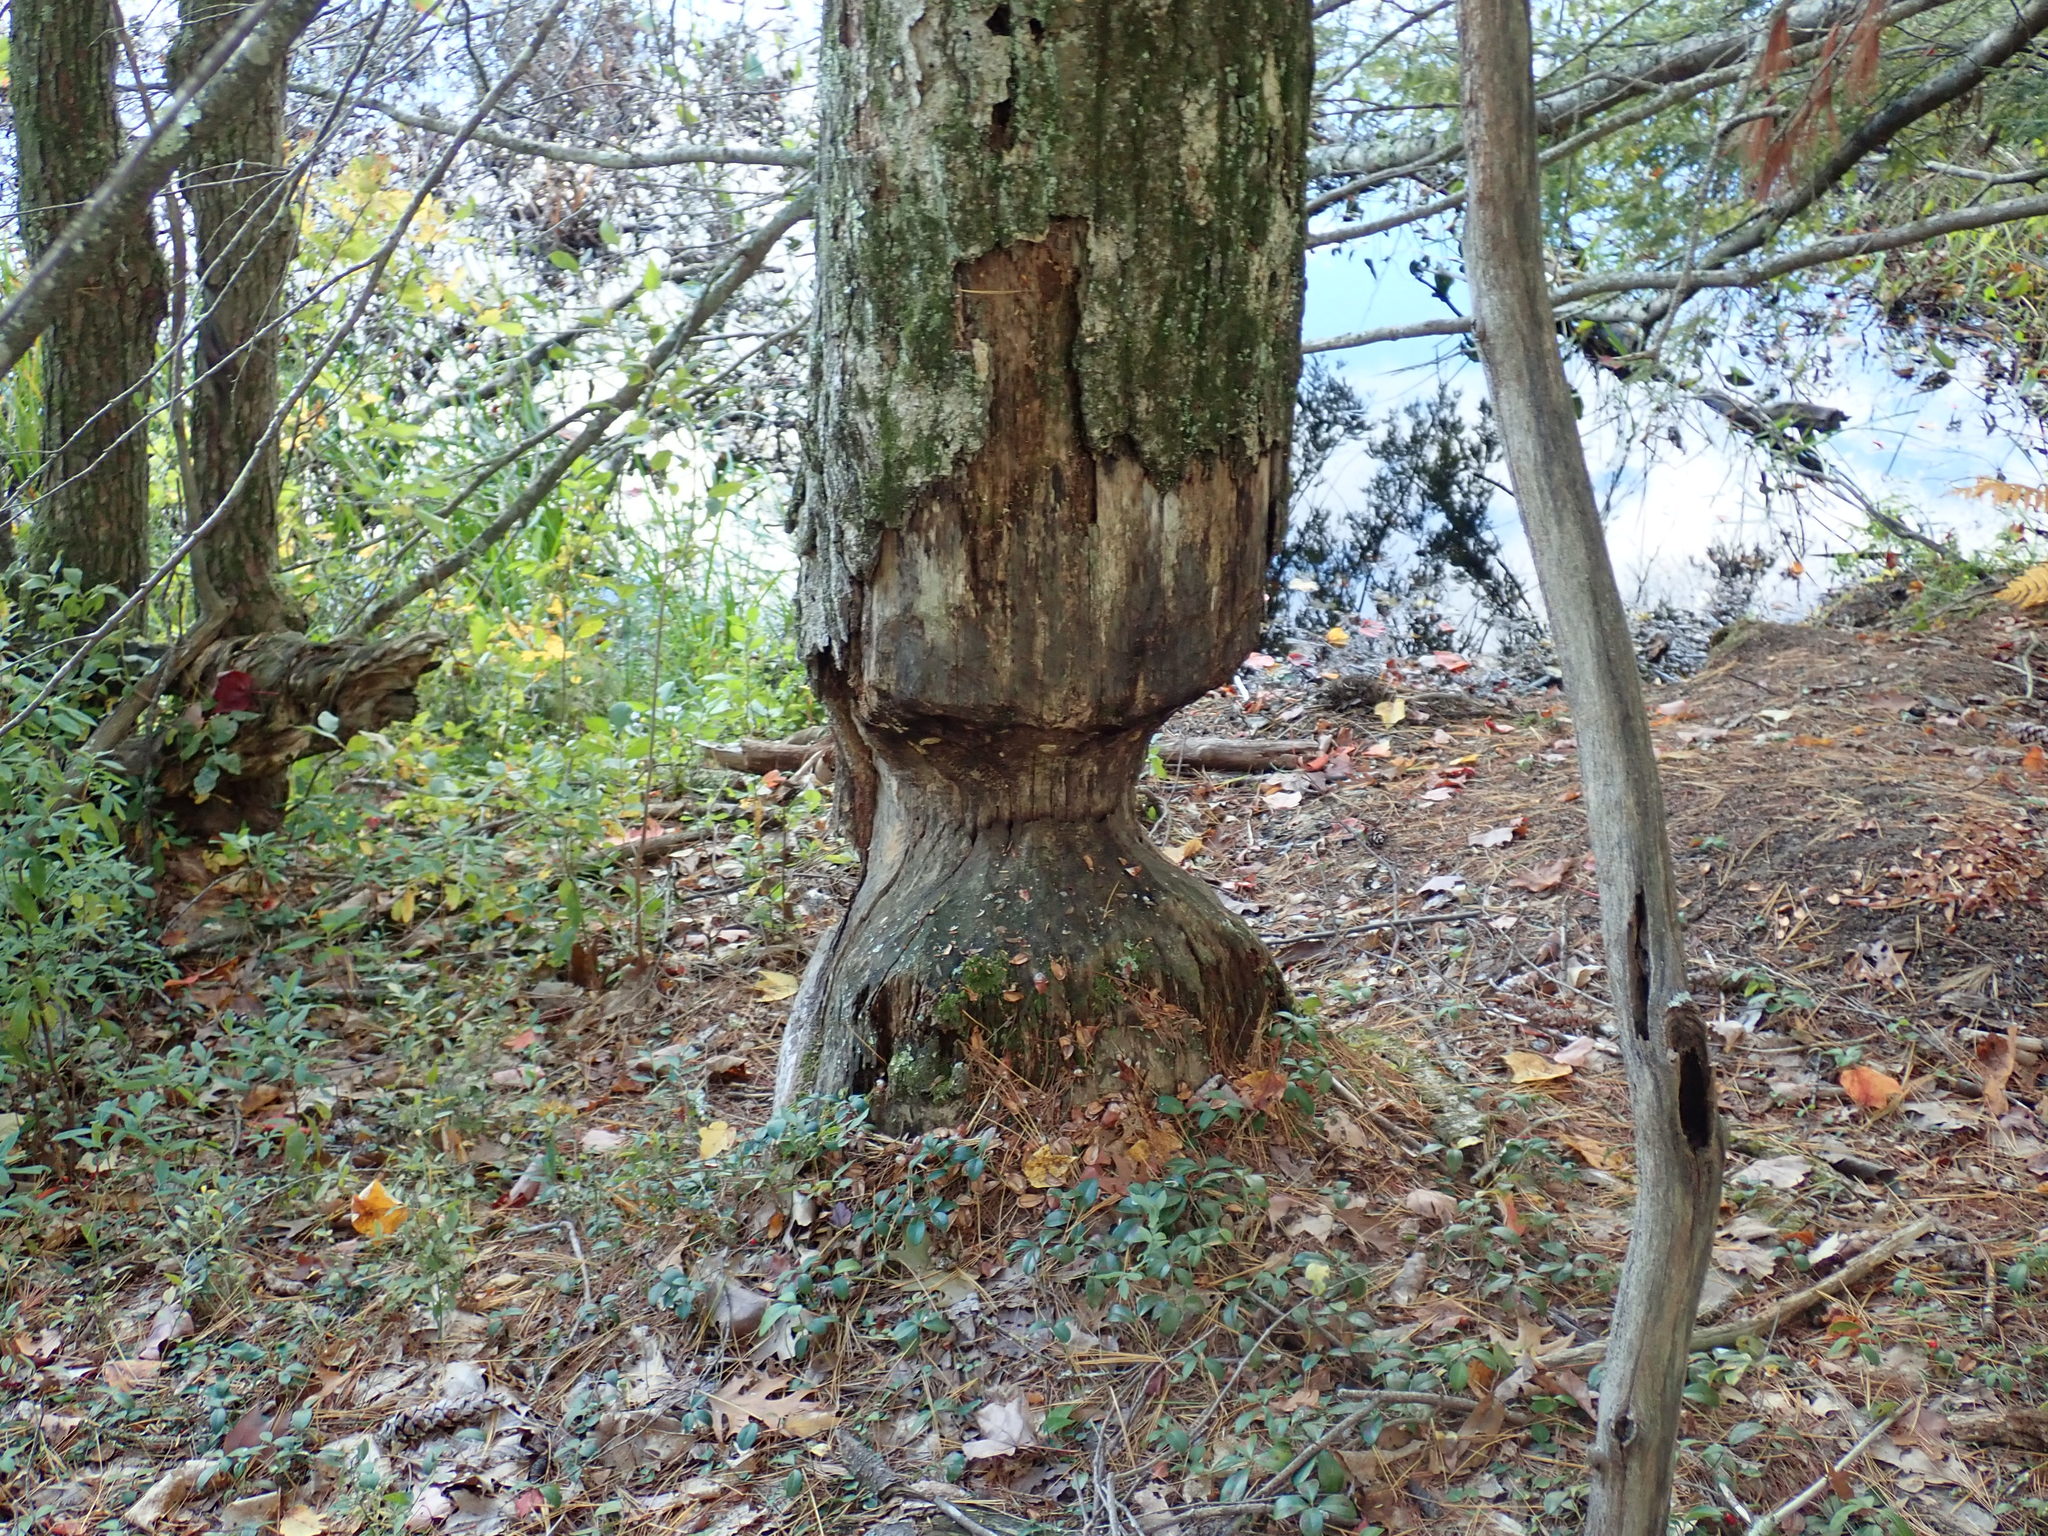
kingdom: Animalia
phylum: Chordata
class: Mammalia
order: Rodentia
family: Castoridae
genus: Castor
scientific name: Castor canadensis
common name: American beaver
